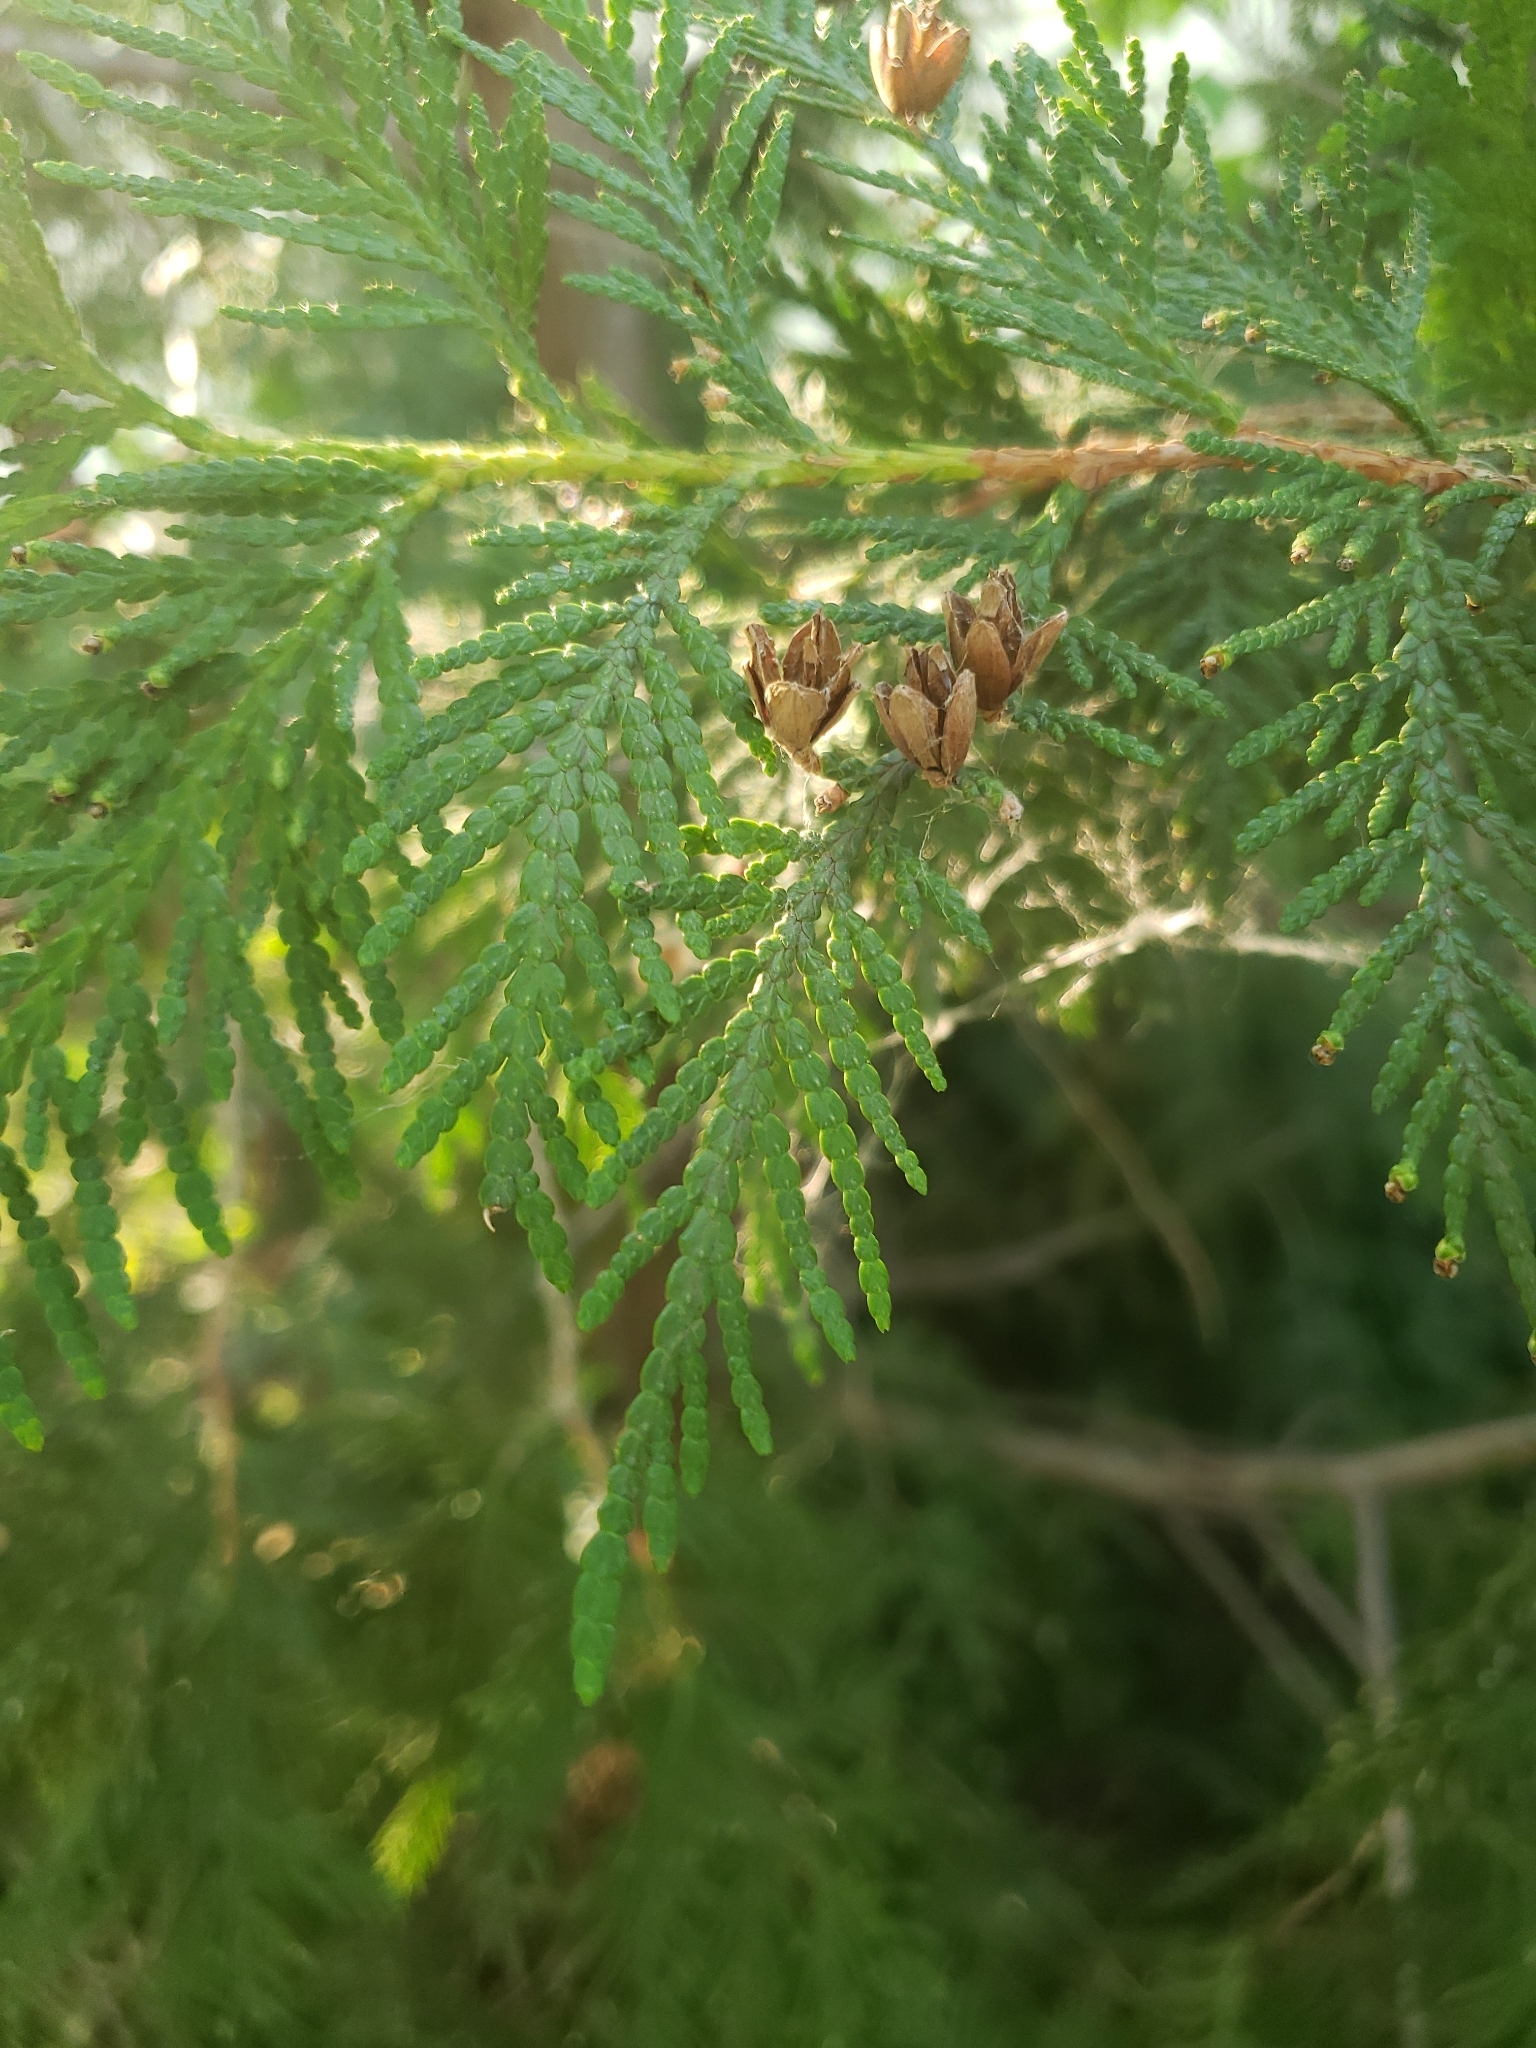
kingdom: Plantae
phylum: Tracheophyta
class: Pinopsida
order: Pinales
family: Cupressaceae
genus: Thuja
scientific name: Thuja occidentalis
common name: Northern white-cedar
